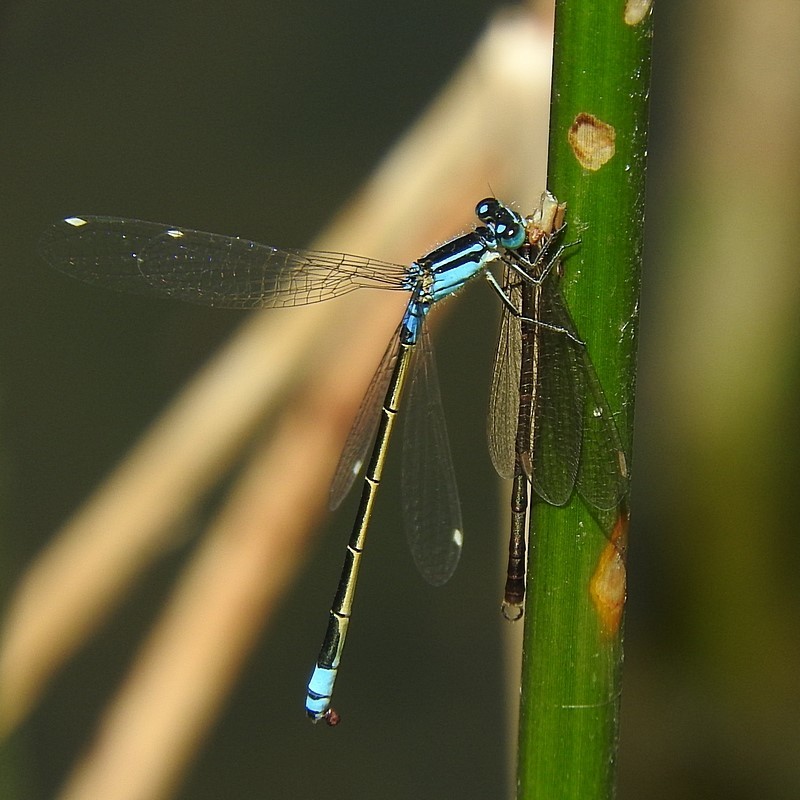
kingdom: Animalia
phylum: Arthropoda
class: Insecta
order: Odonata
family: Coenagrionidae
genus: Ischnura
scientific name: Ischnura heterosticta
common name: Common bluetail
